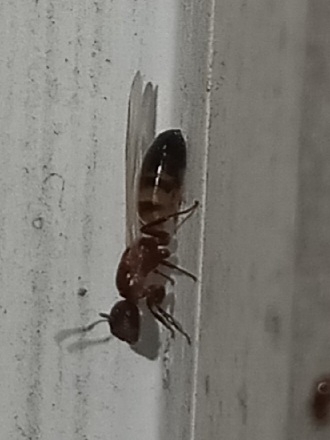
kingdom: Animalia
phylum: Arthropoda
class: Insecta
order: Hymenoptera
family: Formicidae
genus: Colobopsis
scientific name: Colobopsis impressa
